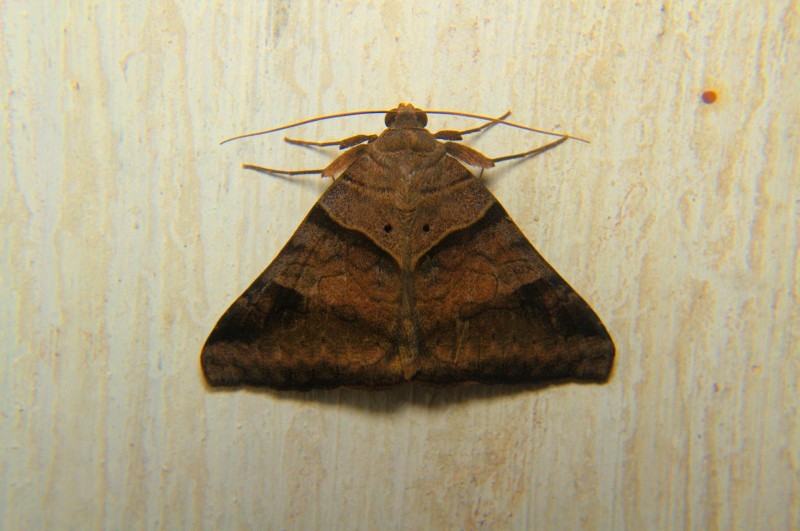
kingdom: Animalia
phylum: Arthropoda
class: Insecta
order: Lepidoptera
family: Erebidae
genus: Mocis
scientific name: Mocis undata
